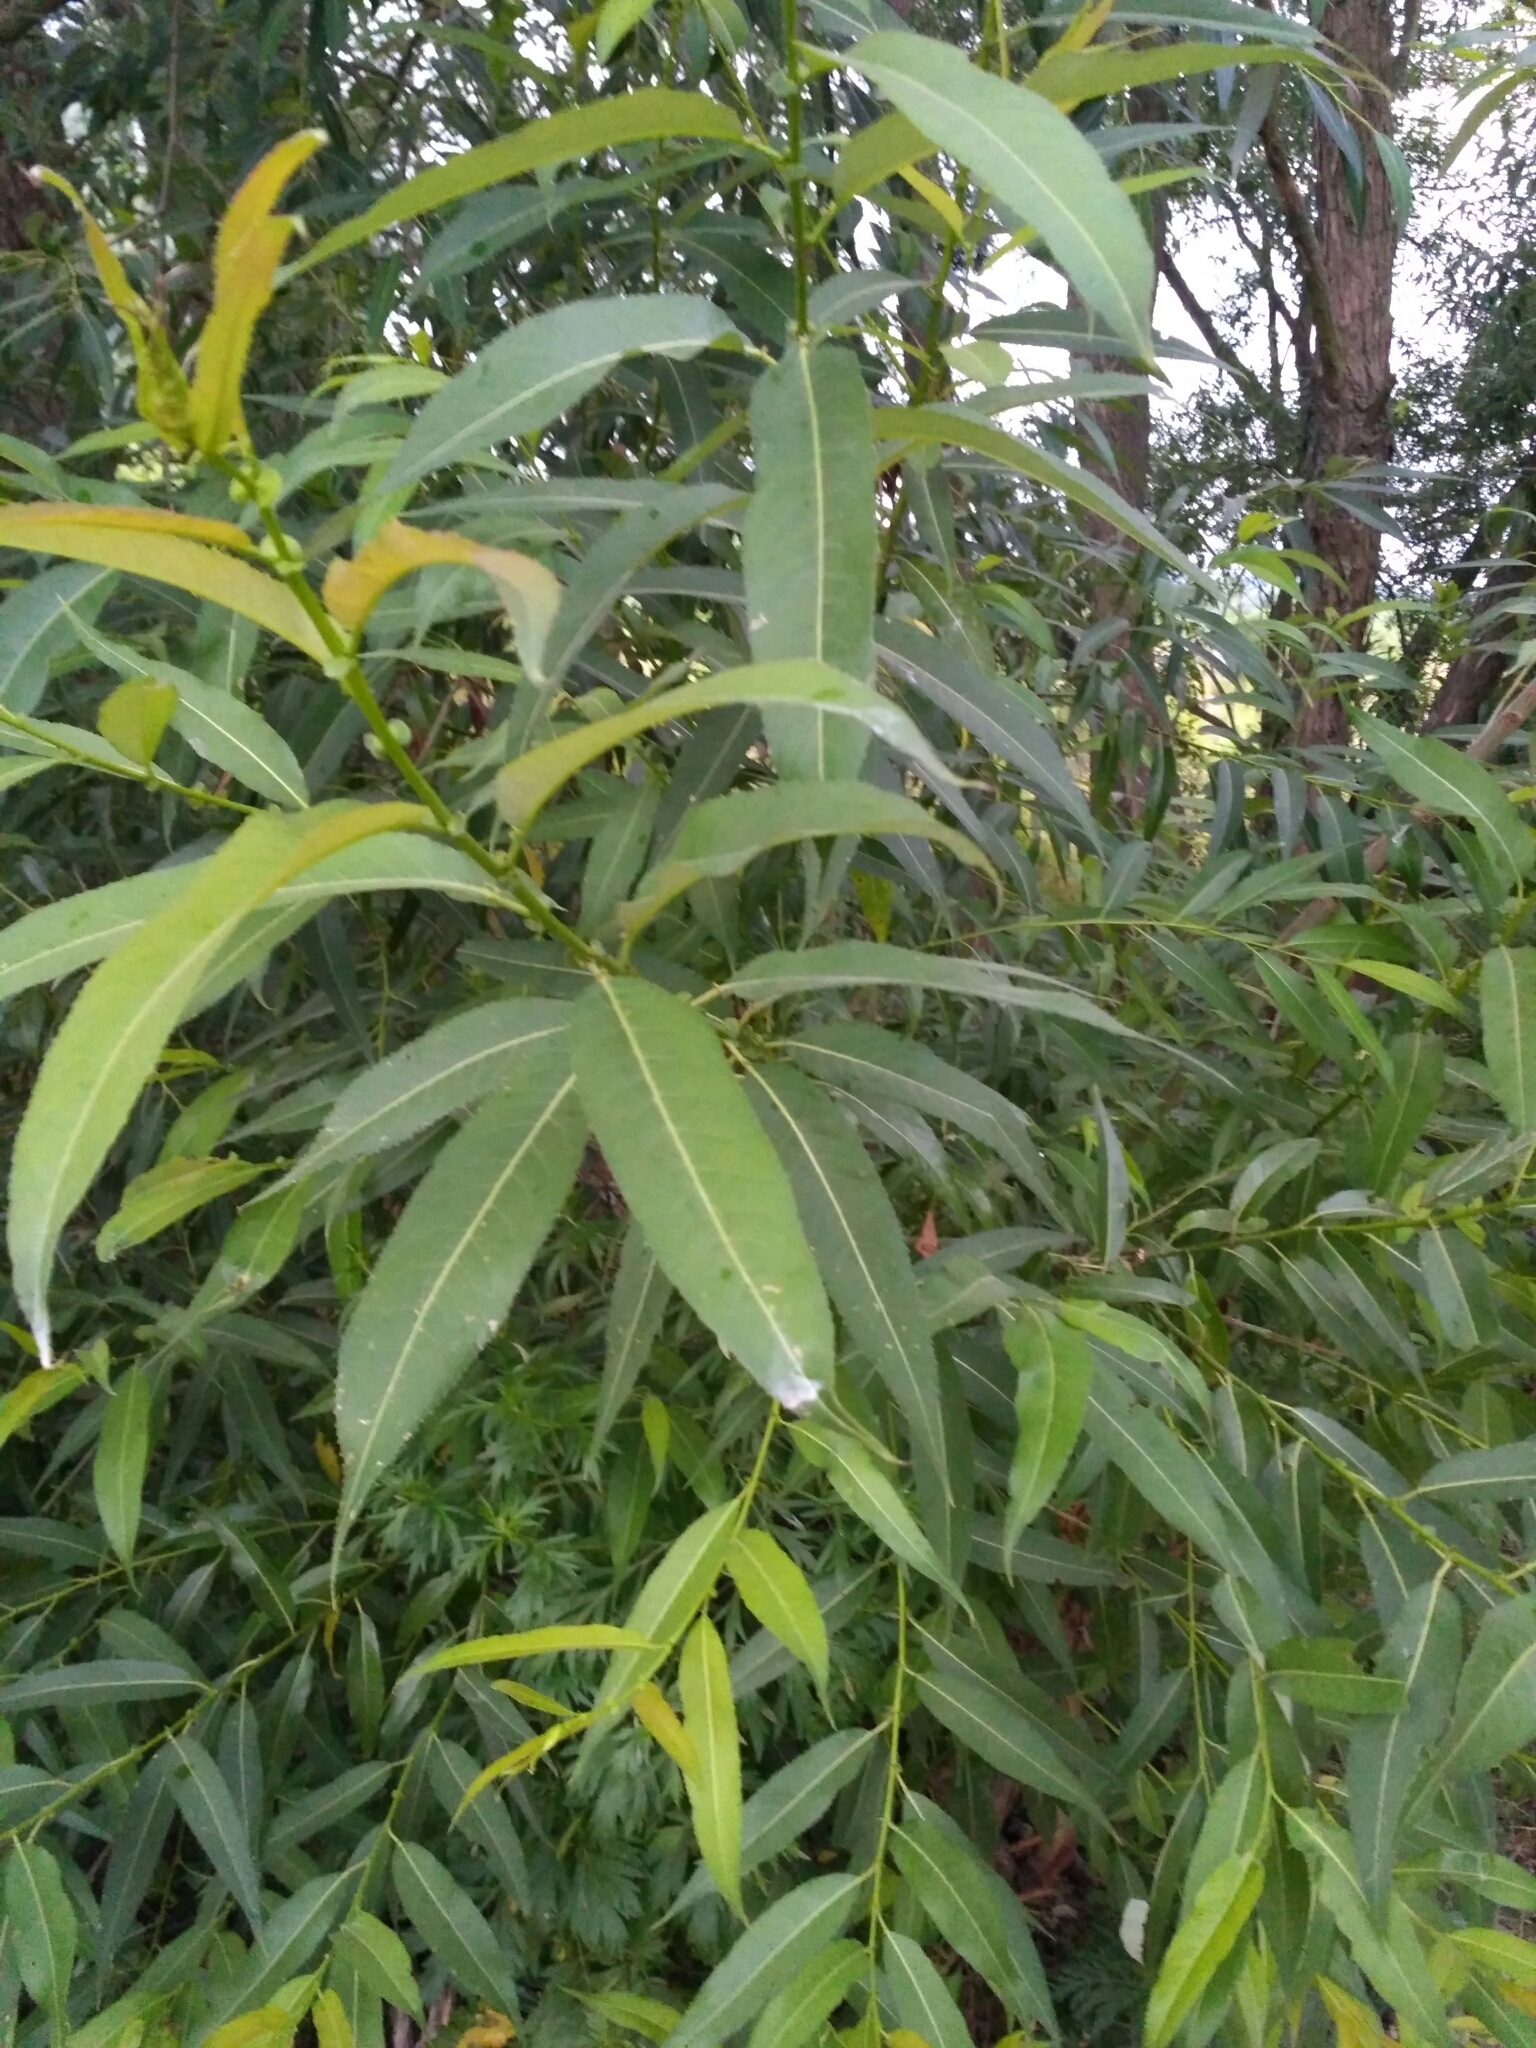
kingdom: Plantae
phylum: Tracheophyta
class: Magnoliopsida
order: Malpighiales
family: Salicaceae
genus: Salix
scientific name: Salix fragilis
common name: Crack willow
